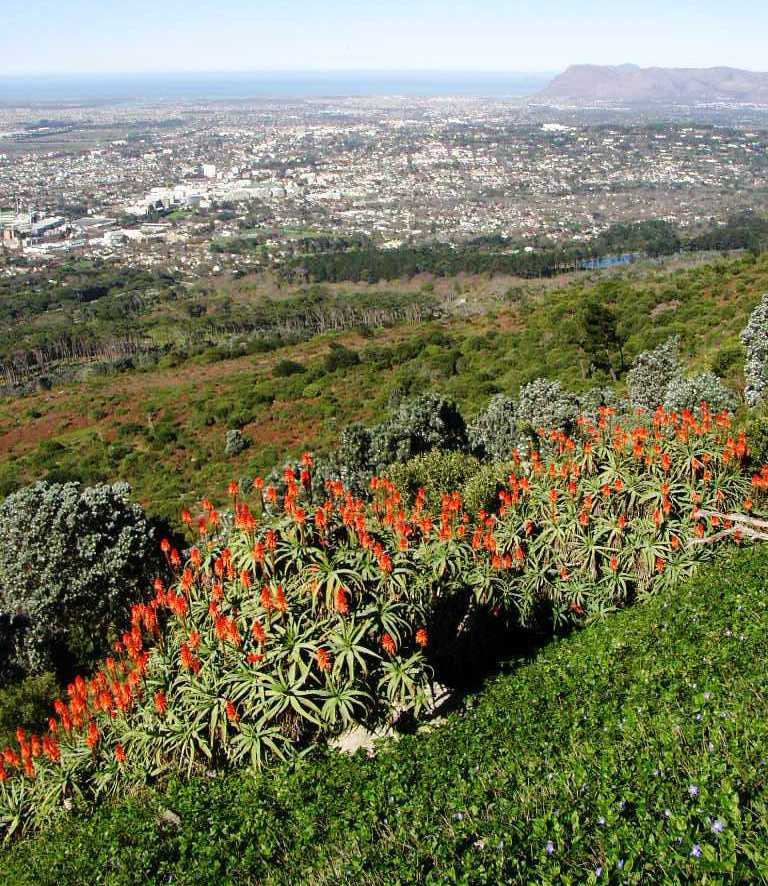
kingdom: Plantae
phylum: Tracheophyta
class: Liliopsida
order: Asparagales
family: Asphodelaceae
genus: Aloe
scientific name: Aloe arborescens
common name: Candelabra aloe
